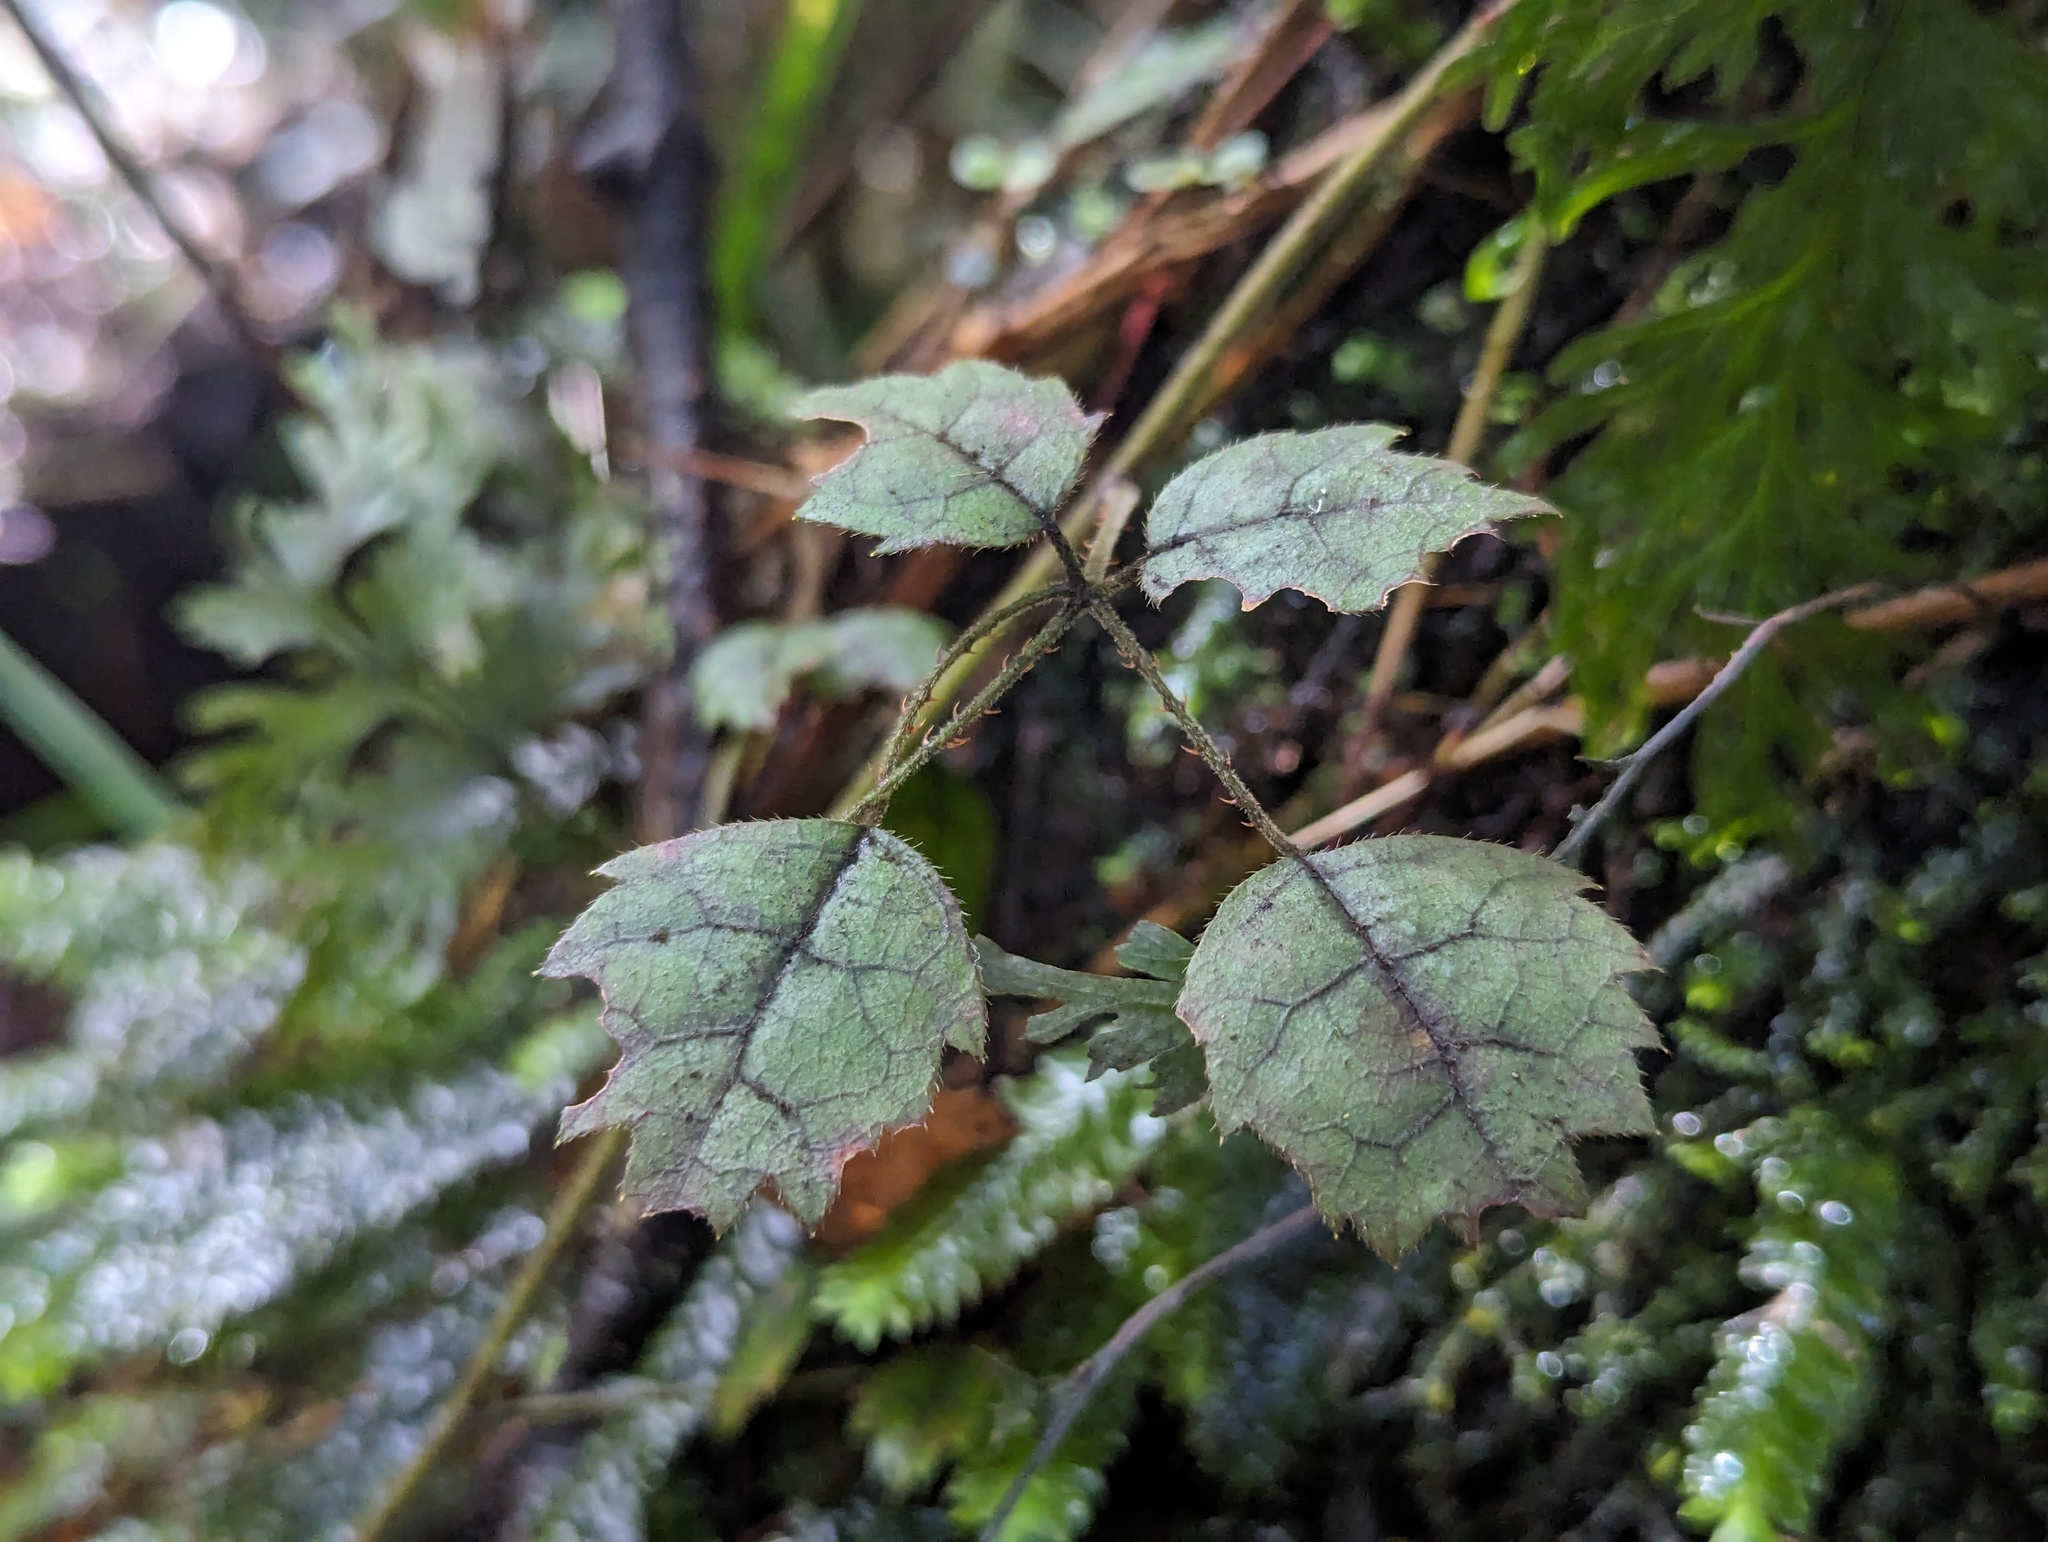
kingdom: Plantae
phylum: Tracheophyta
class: Magnoliopsida
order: Rosales
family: Rosaceae
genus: Rubus
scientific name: Rubus australis
